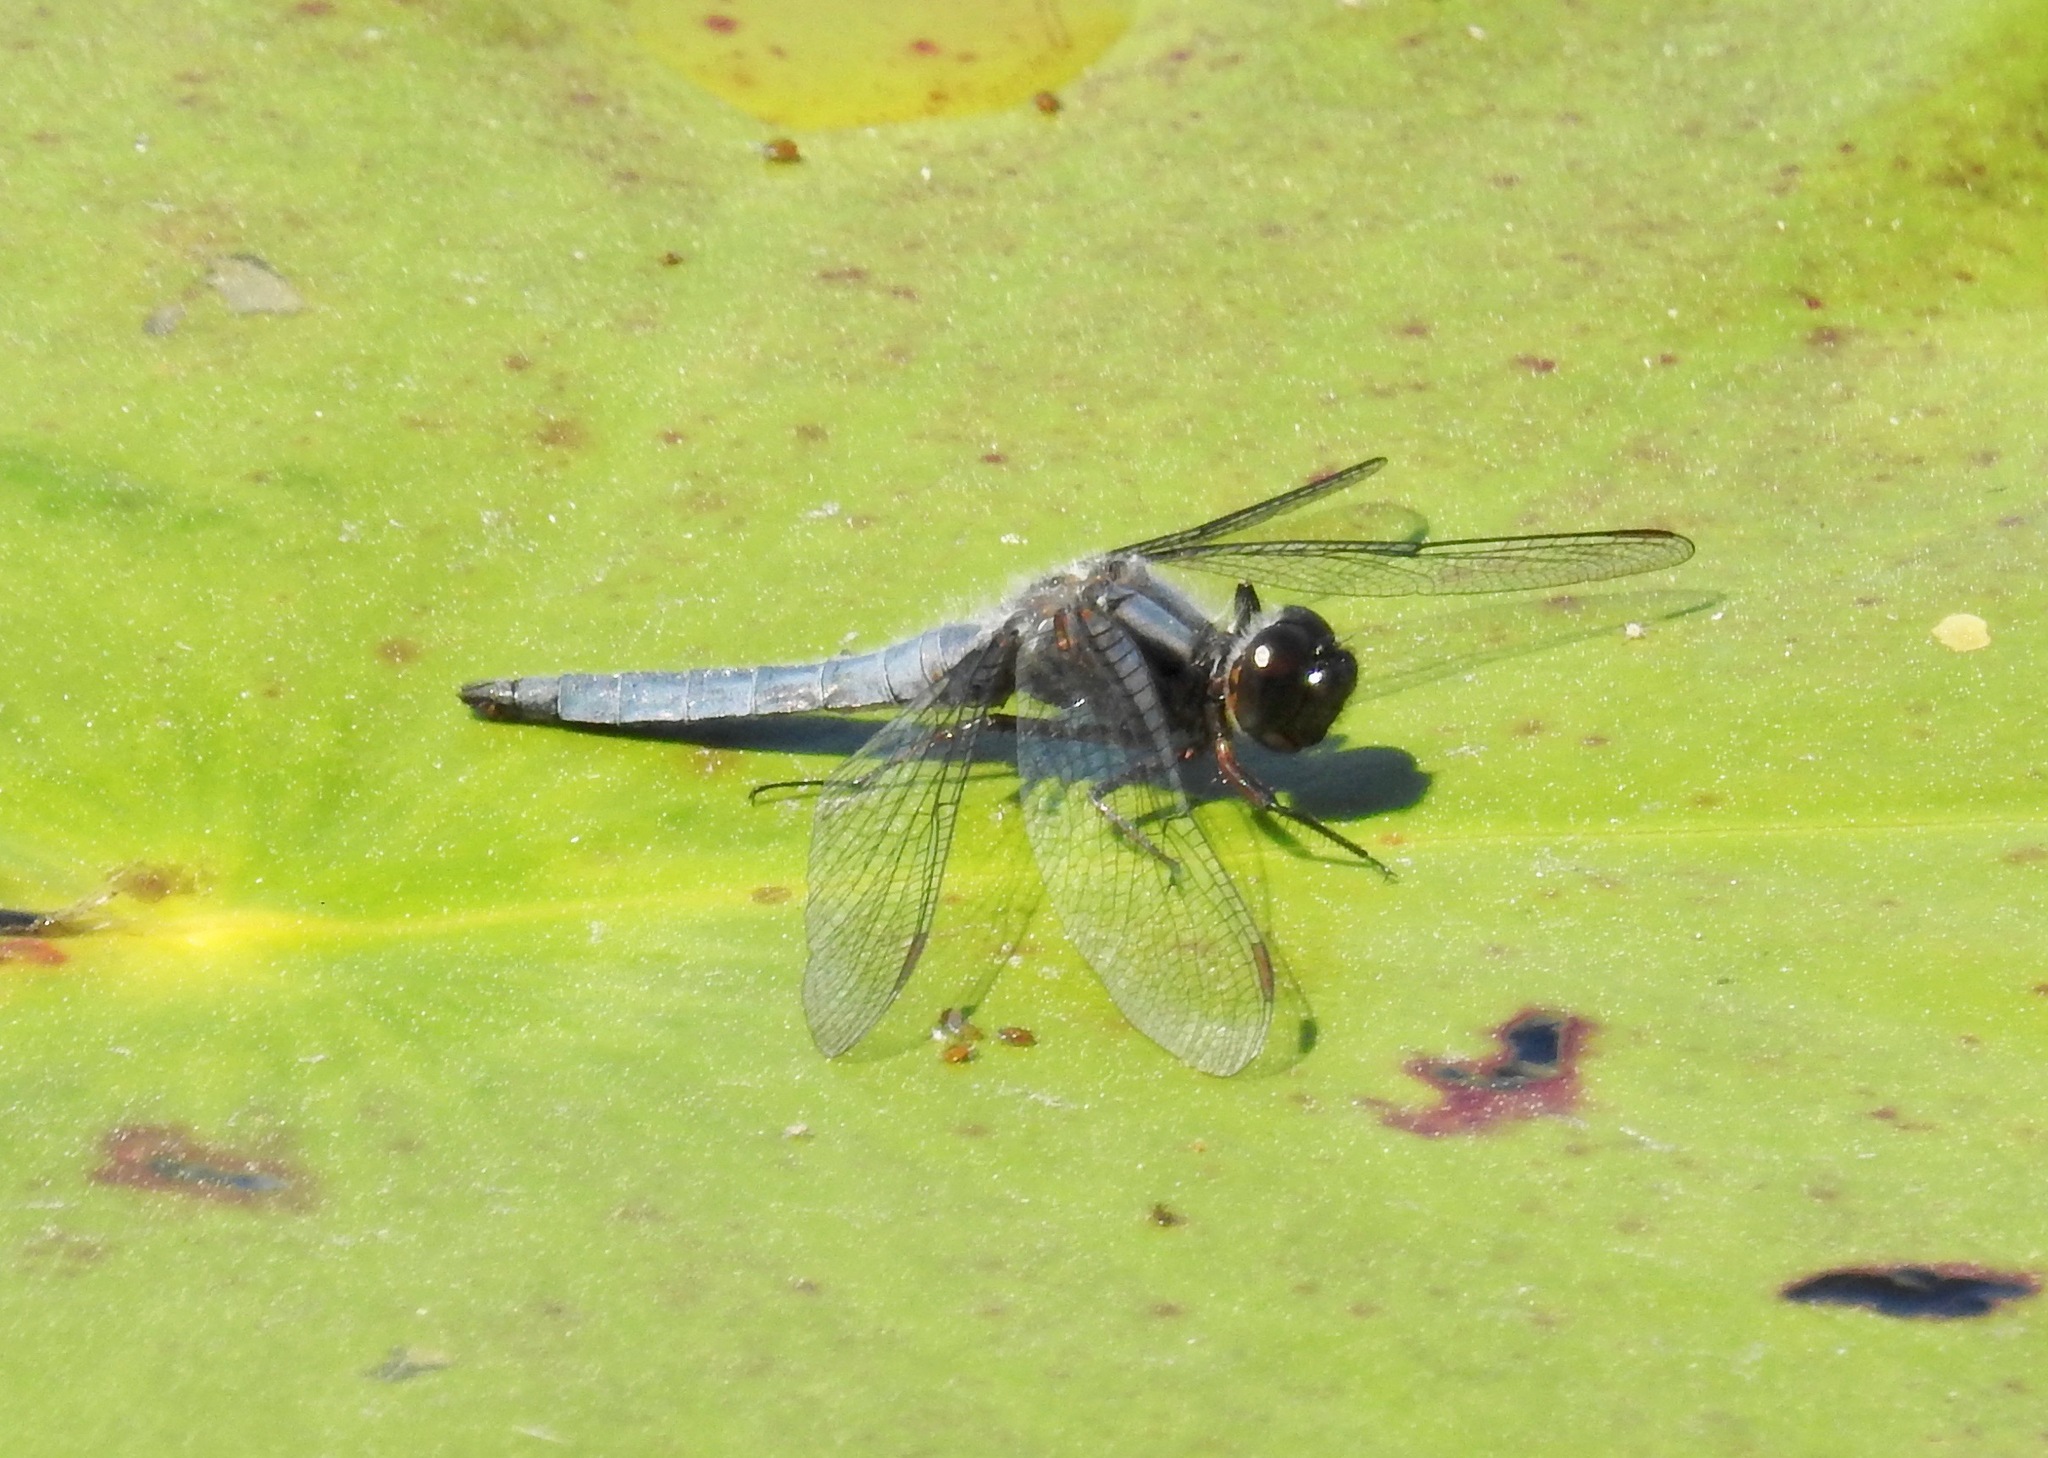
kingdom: Animalia
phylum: Arthropoda
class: Insecta
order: Odonata
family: Libellulidae
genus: Ladona
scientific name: Ladona deplanata
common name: Blue corporal
